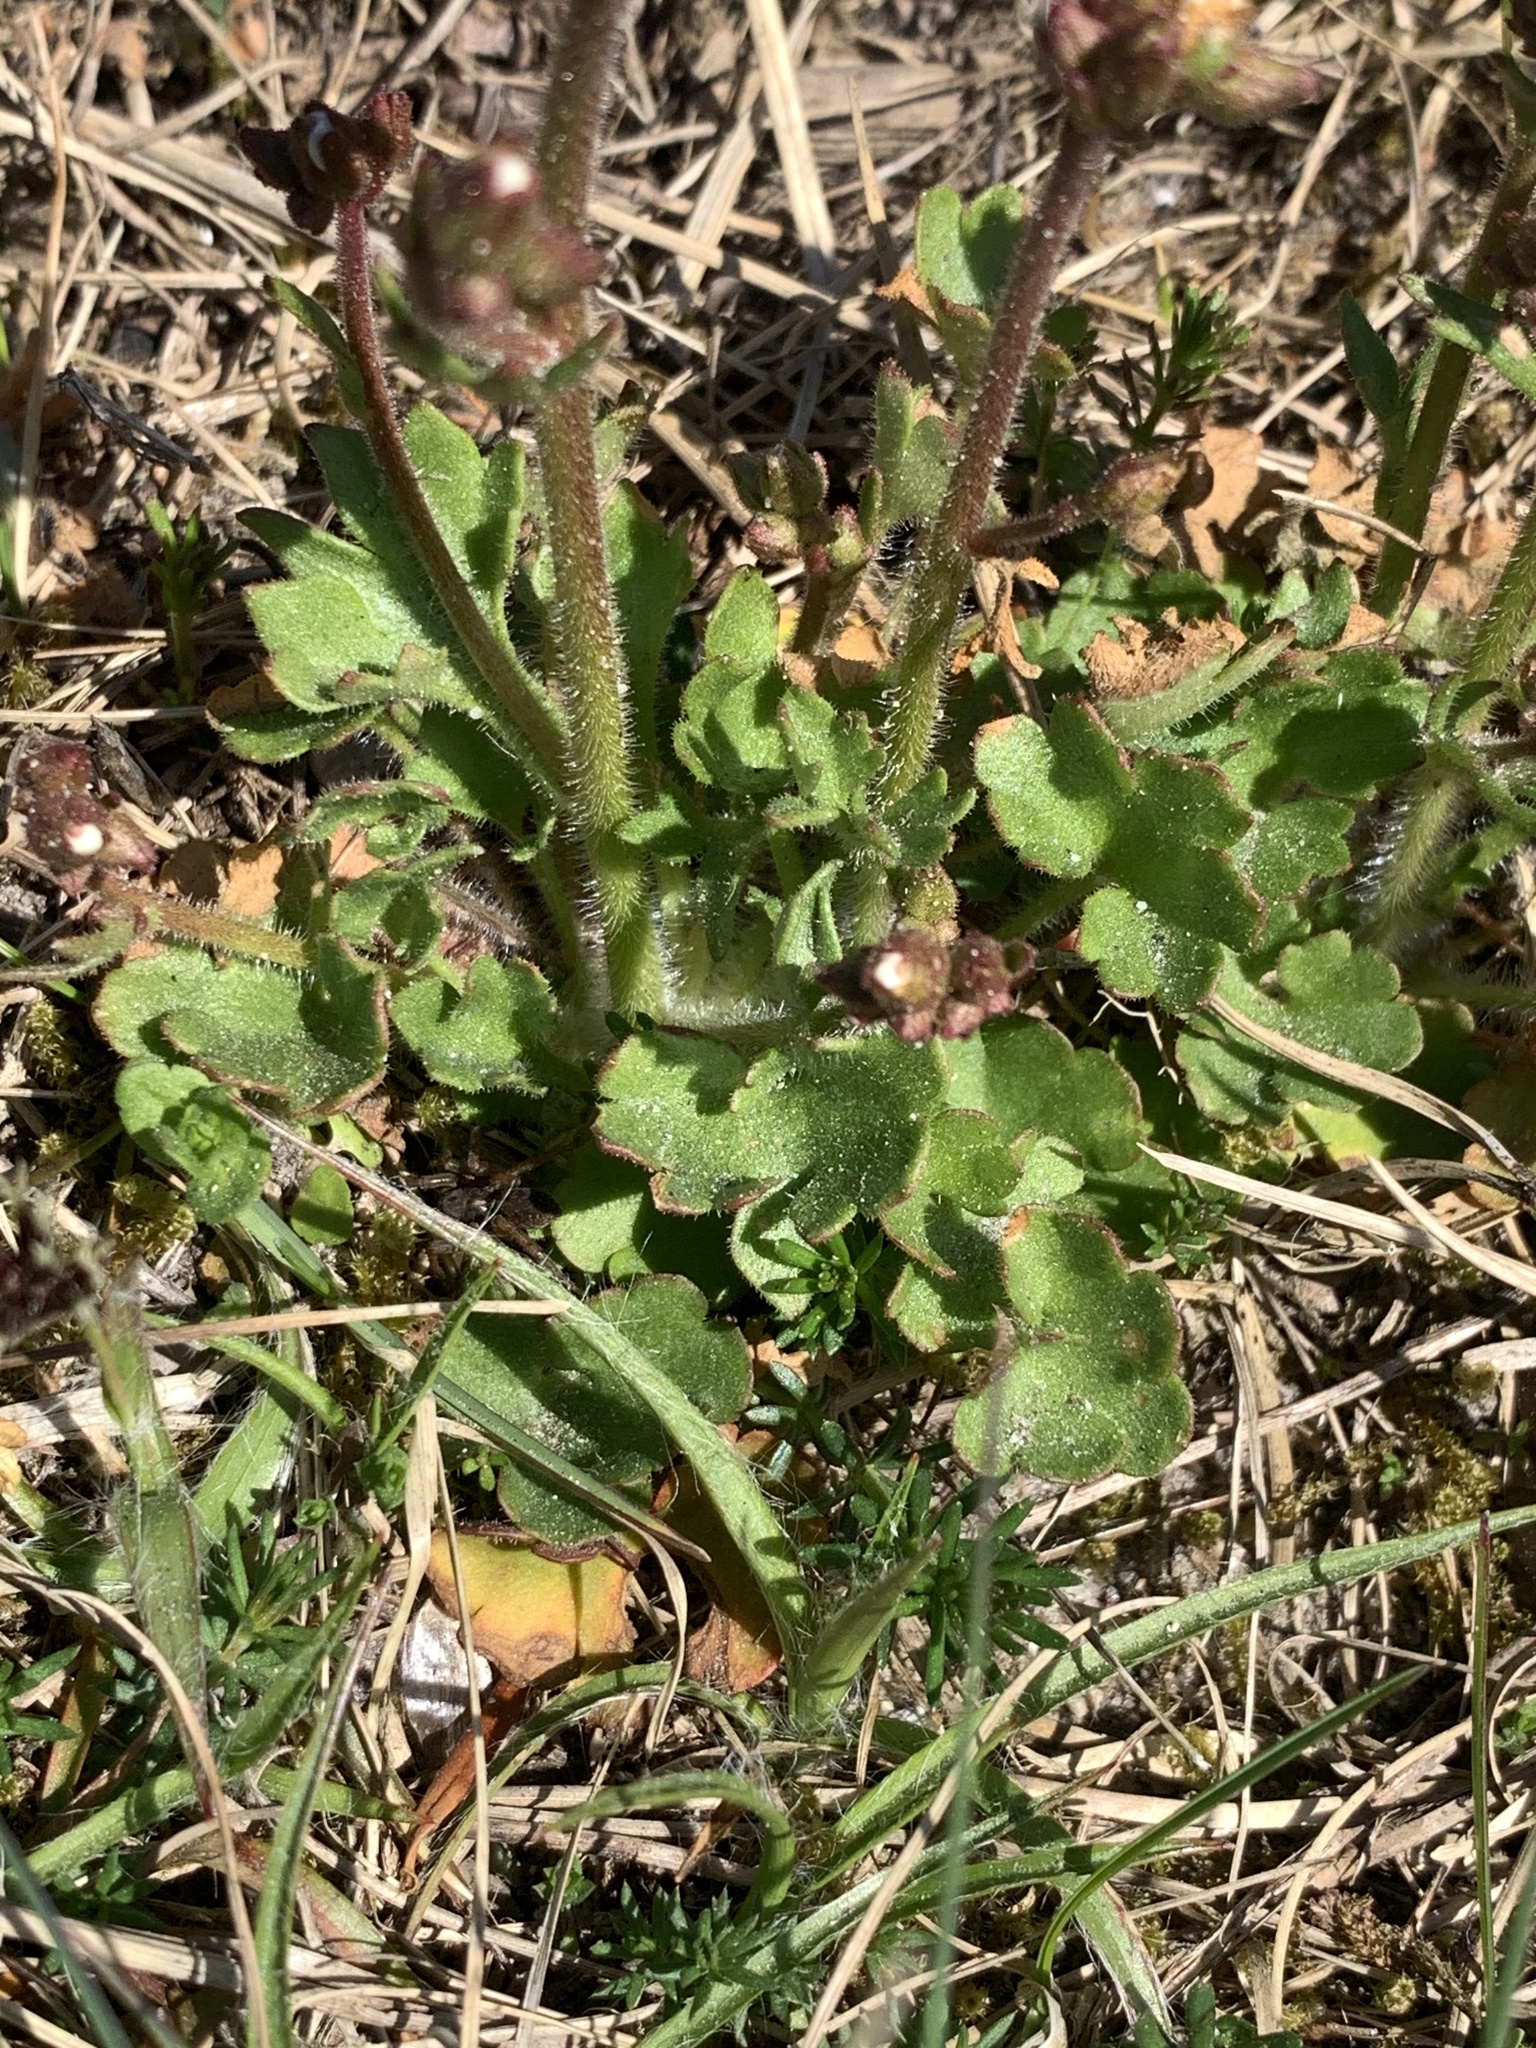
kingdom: Plantae
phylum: Tracheophyta
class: Magnoliopsida
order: Saxifragales
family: Saxifragaceae
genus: Saxifraga
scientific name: Saxifraga granulata
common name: Meadow saxifrage
